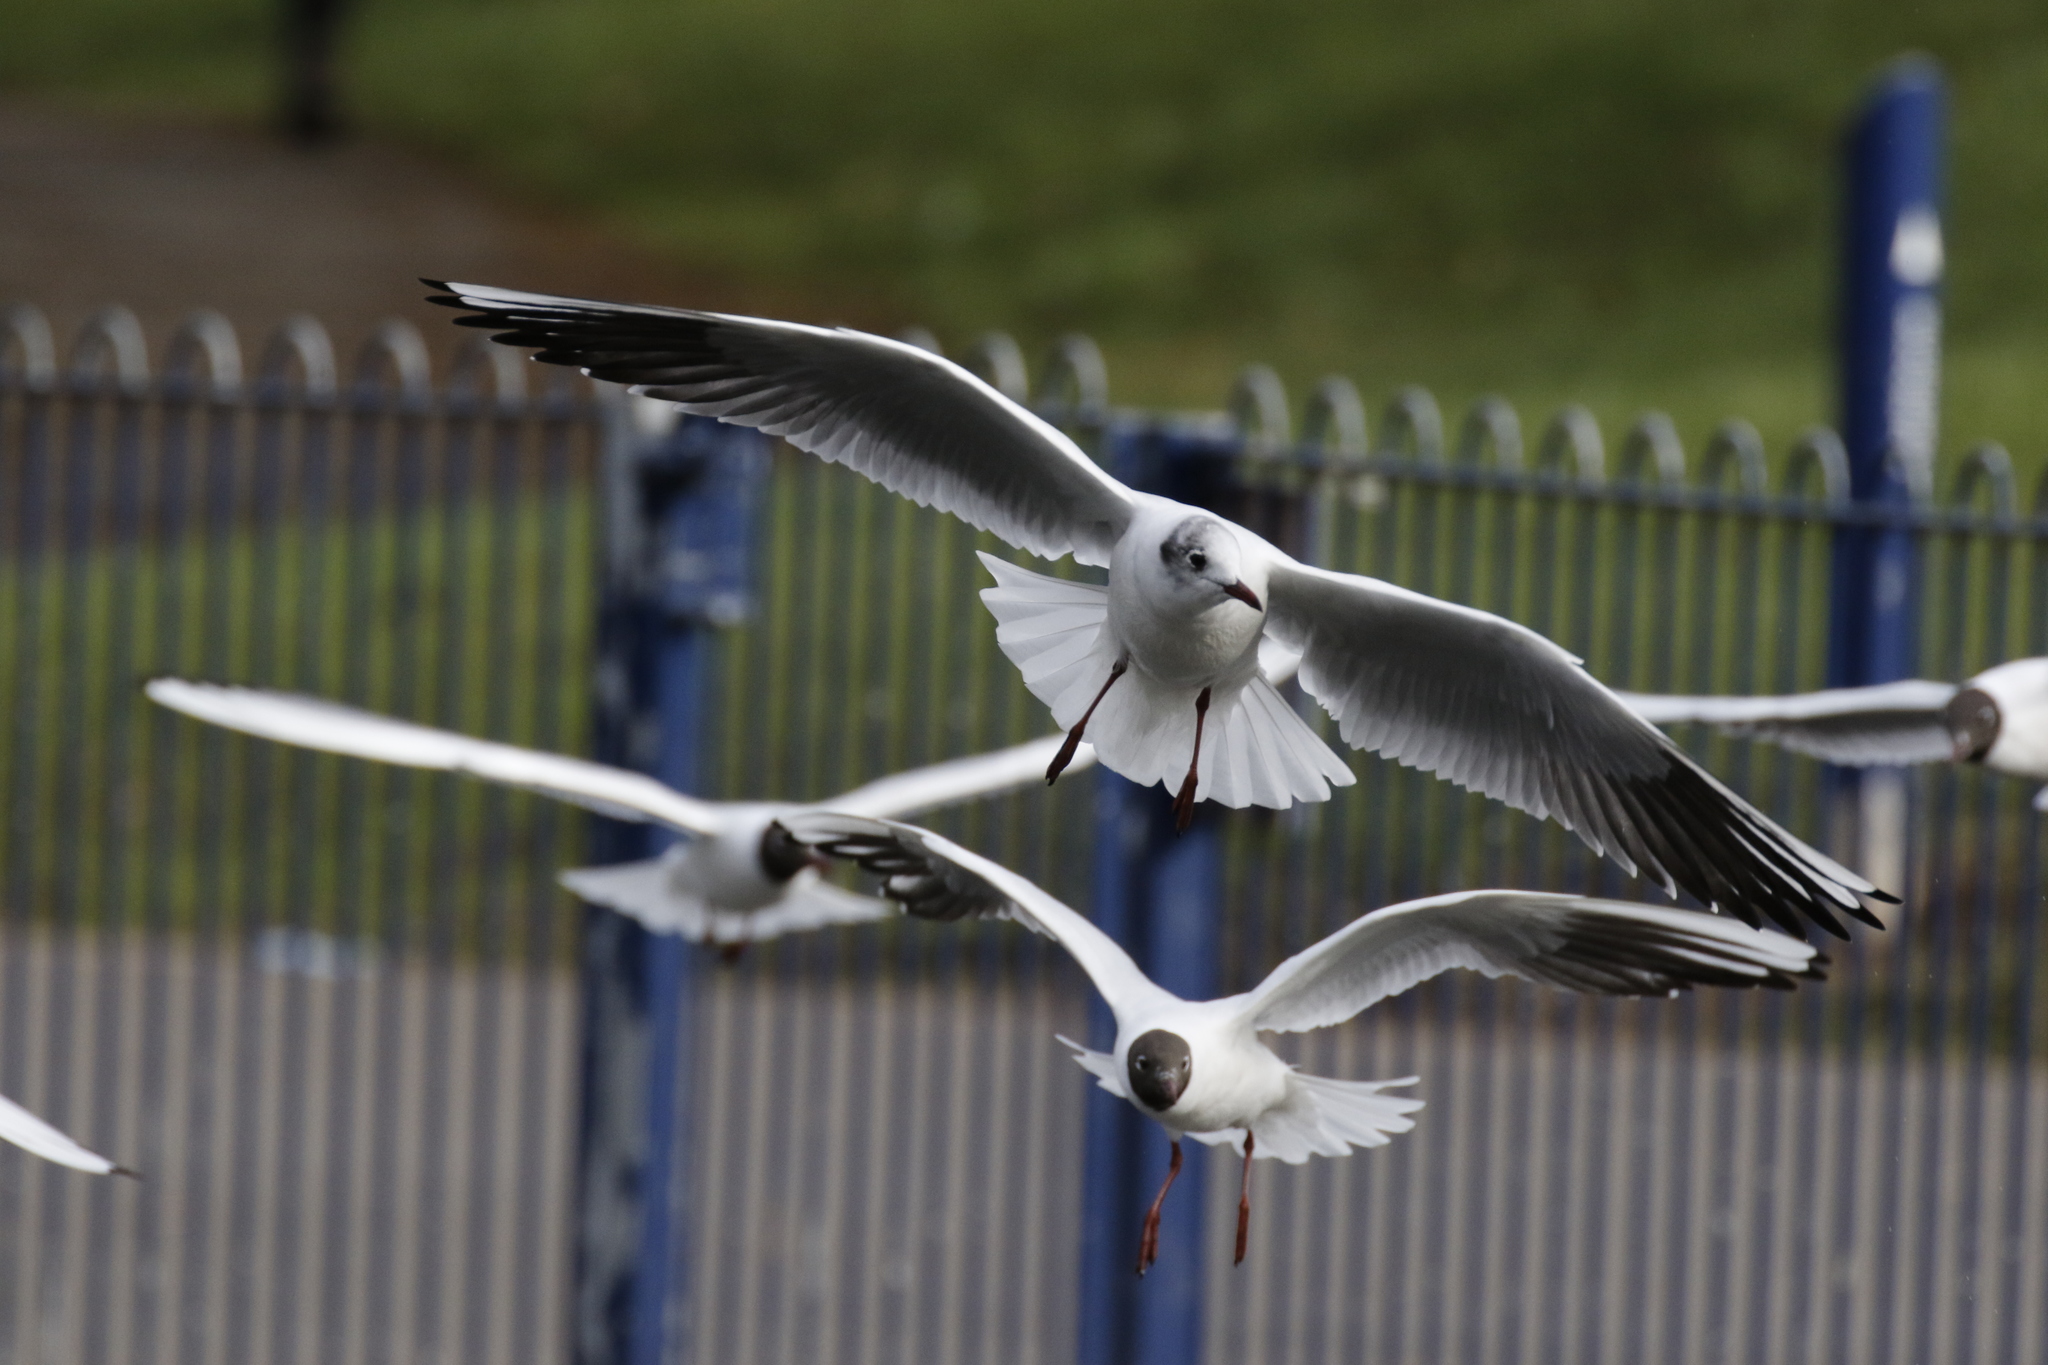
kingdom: Animalia
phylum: Chordata
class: Aves
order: Charadriiformes
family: Laridae
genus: Chroicocephalus
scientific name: Chroicocephalus ridibundus
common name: Black-headed gull
